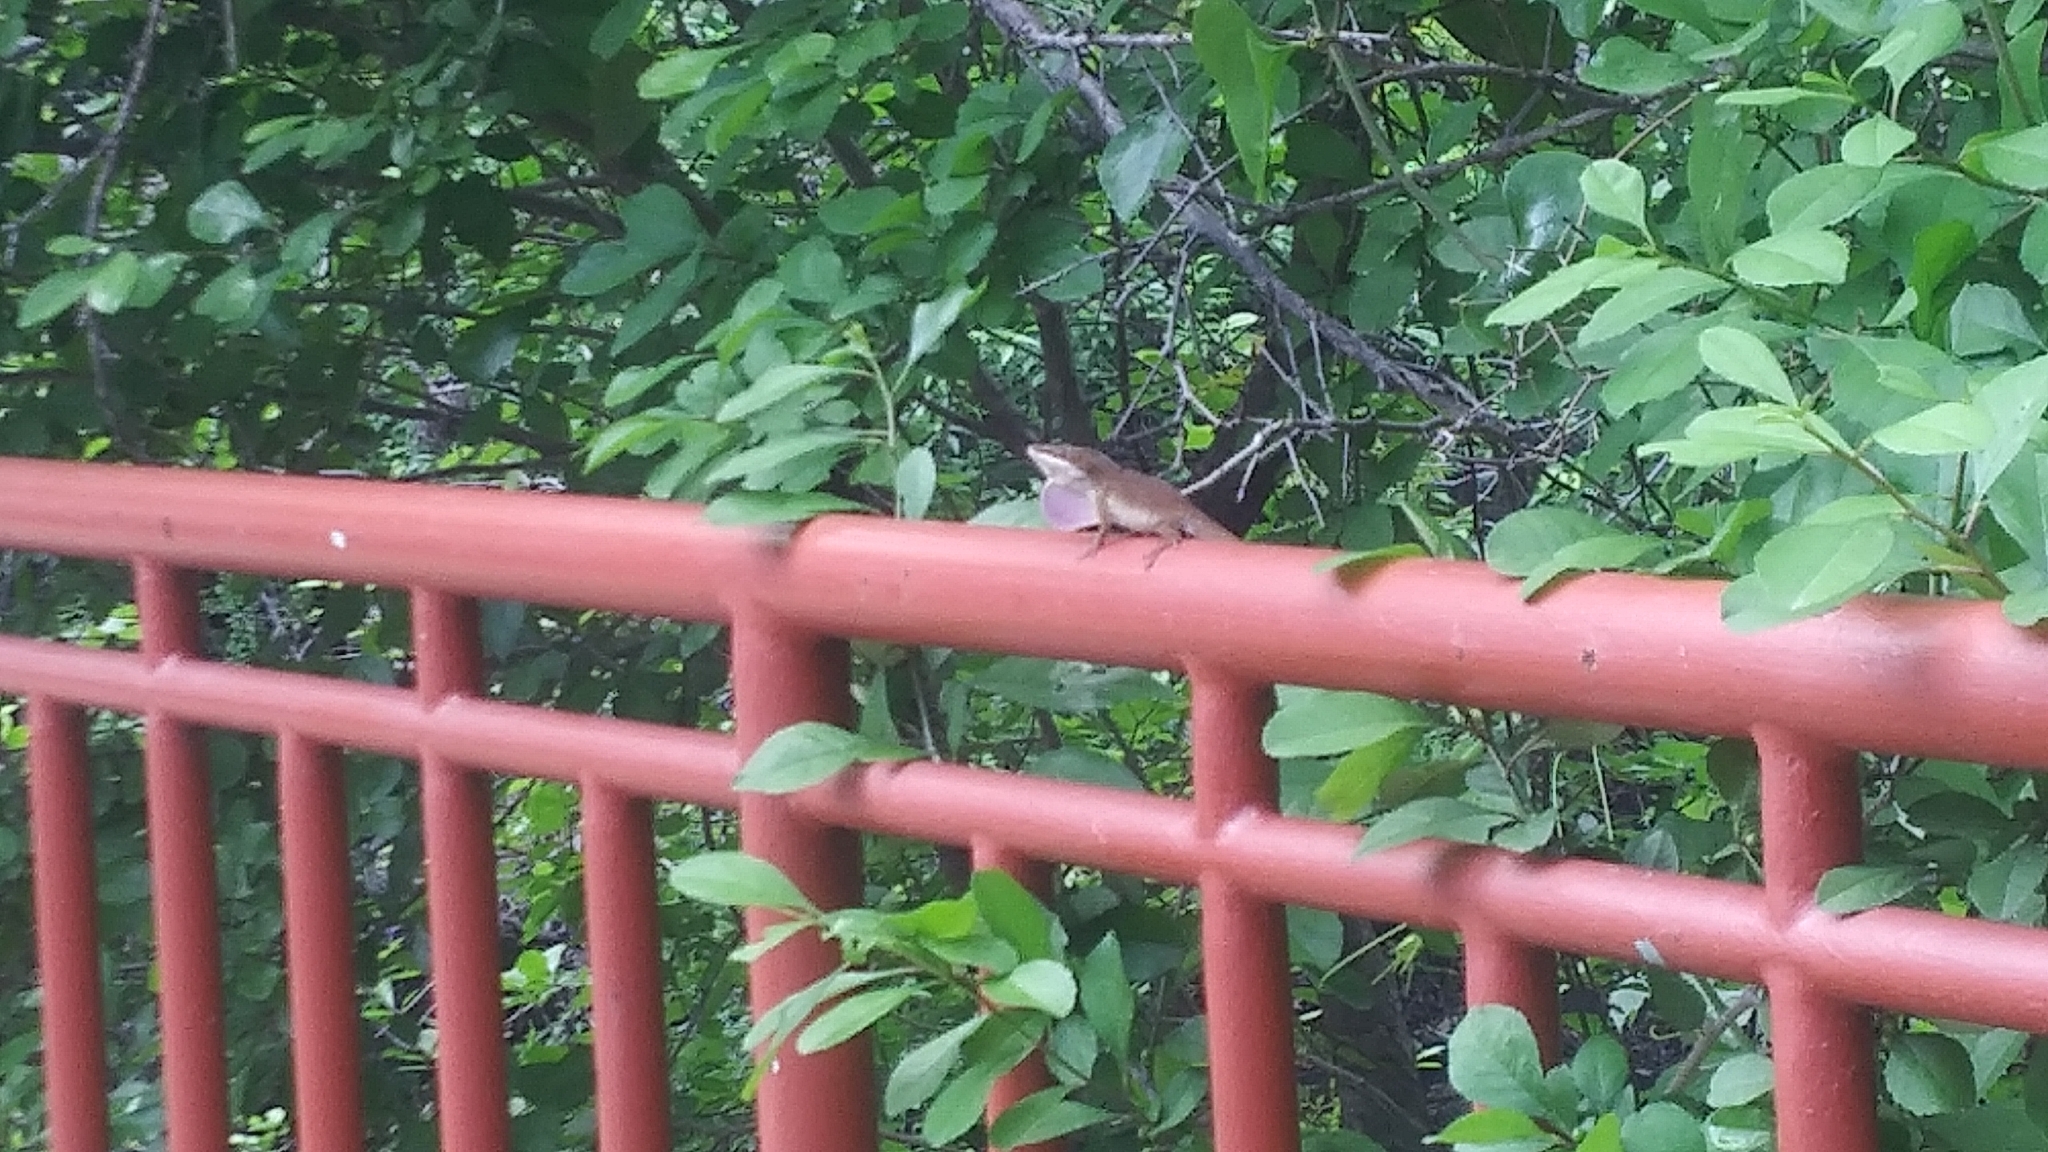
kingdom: Animalia
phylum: Chordata
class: Squamata
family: Dactyloidae
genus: Anolis
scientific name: Anolis carolinensis
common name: Green anole
